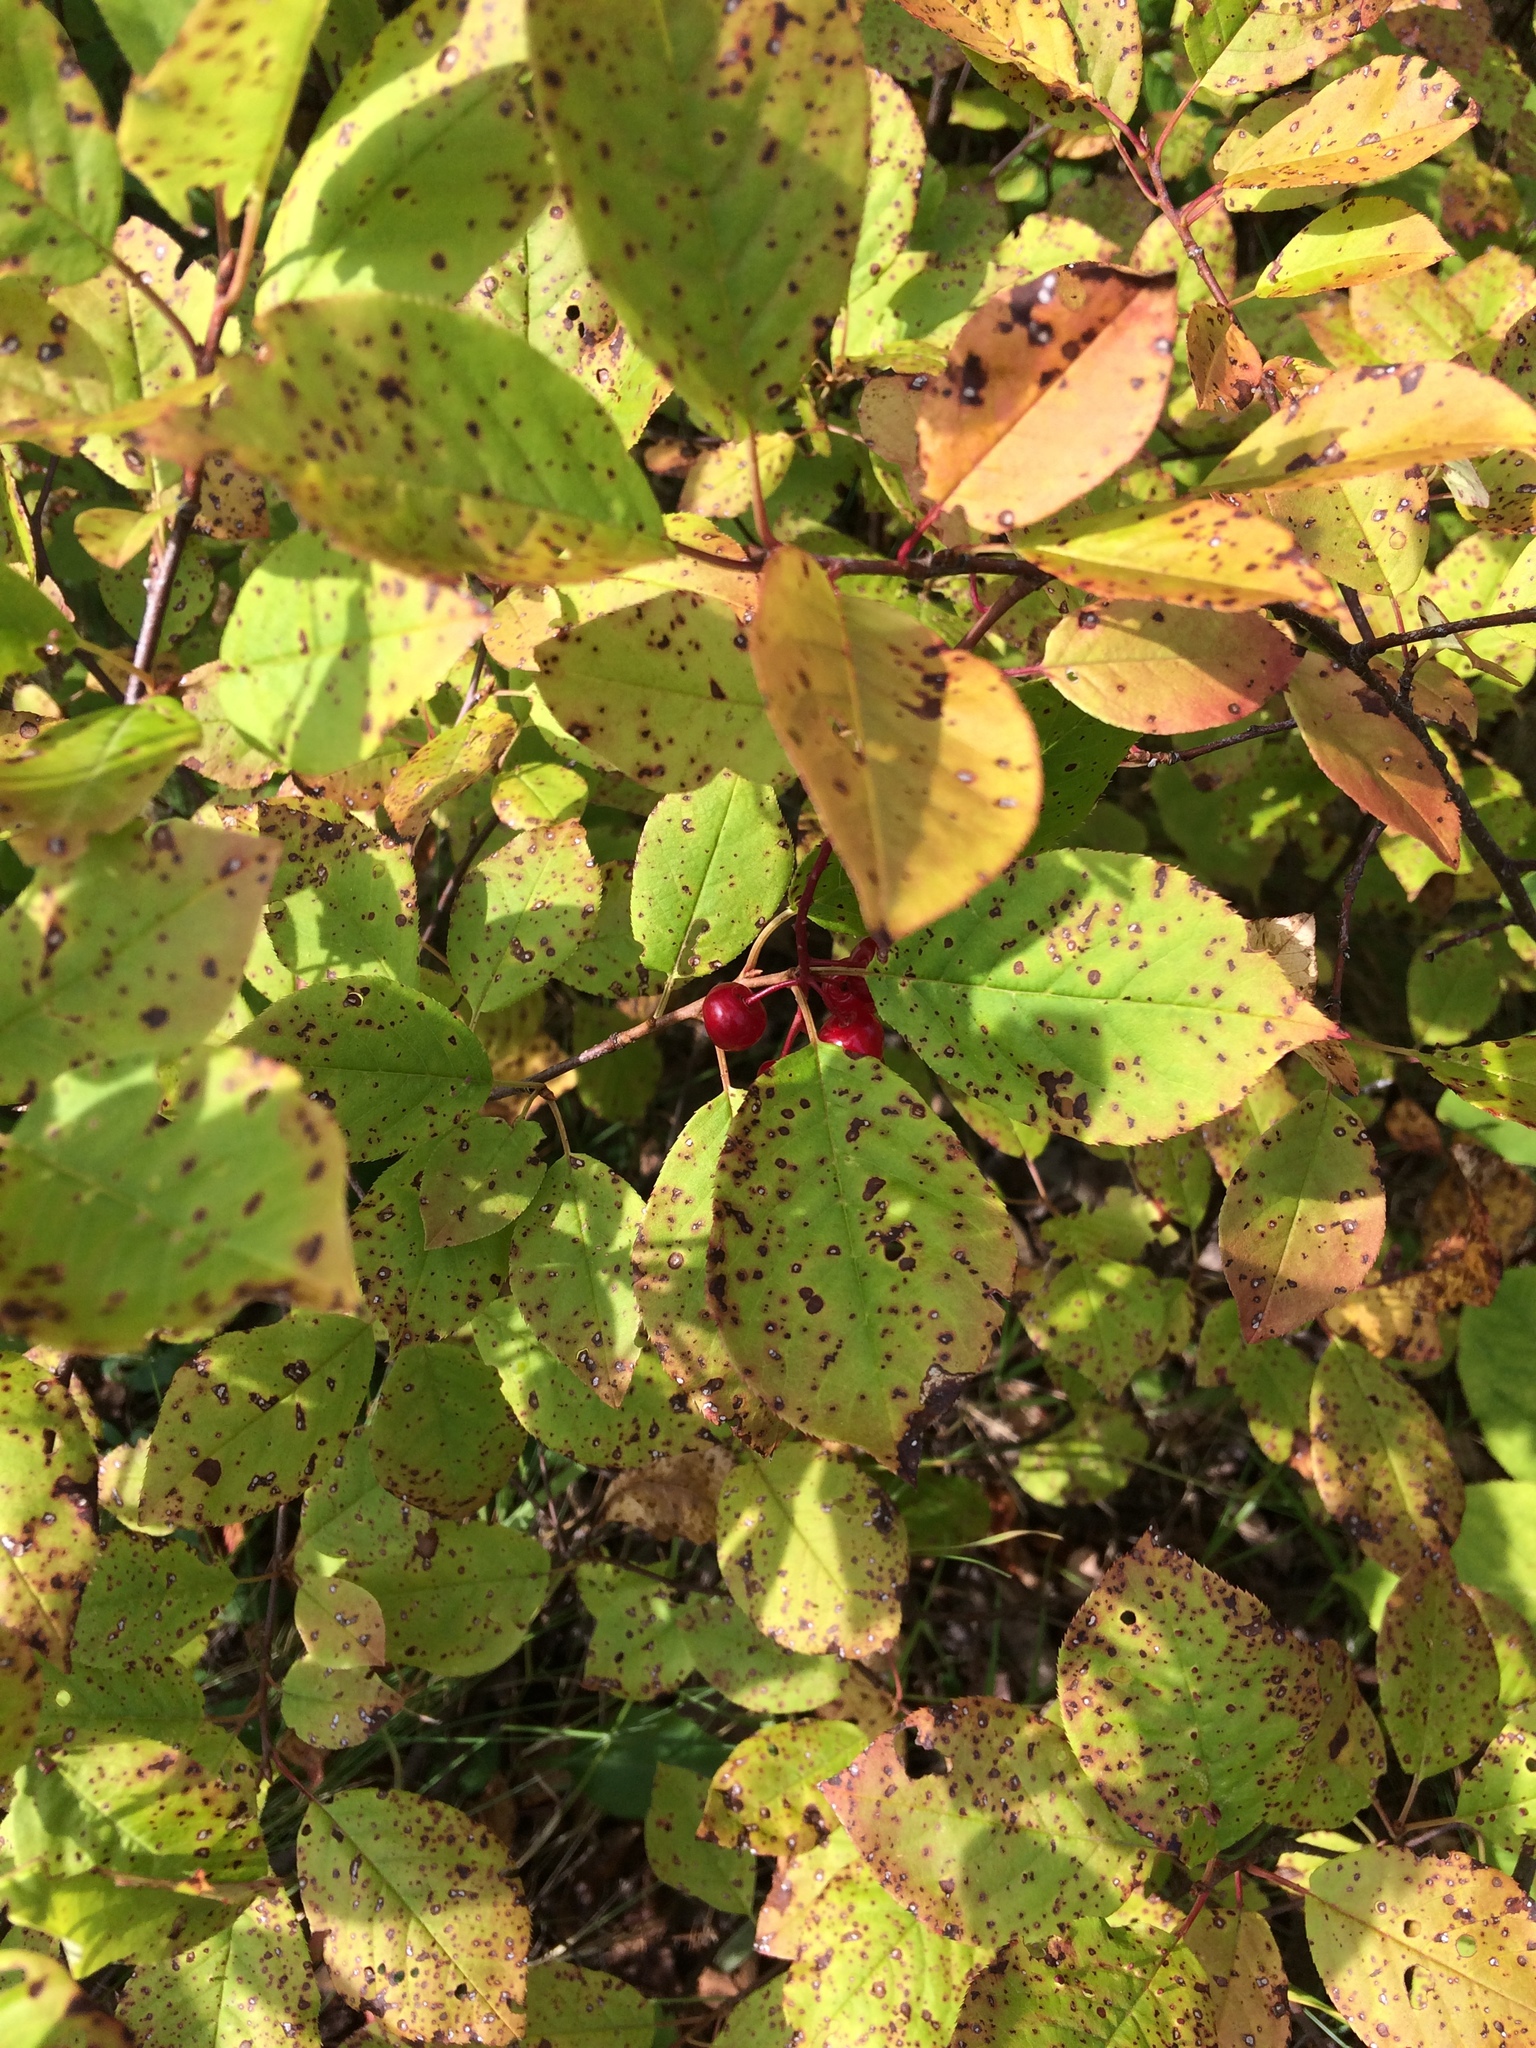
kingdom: Plantae
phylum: Tracheophyta
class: Magnoliopsida
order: Rosales
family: Rosaceae
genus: Prunus
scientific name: Prunus virginiana
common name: Chokecherry
